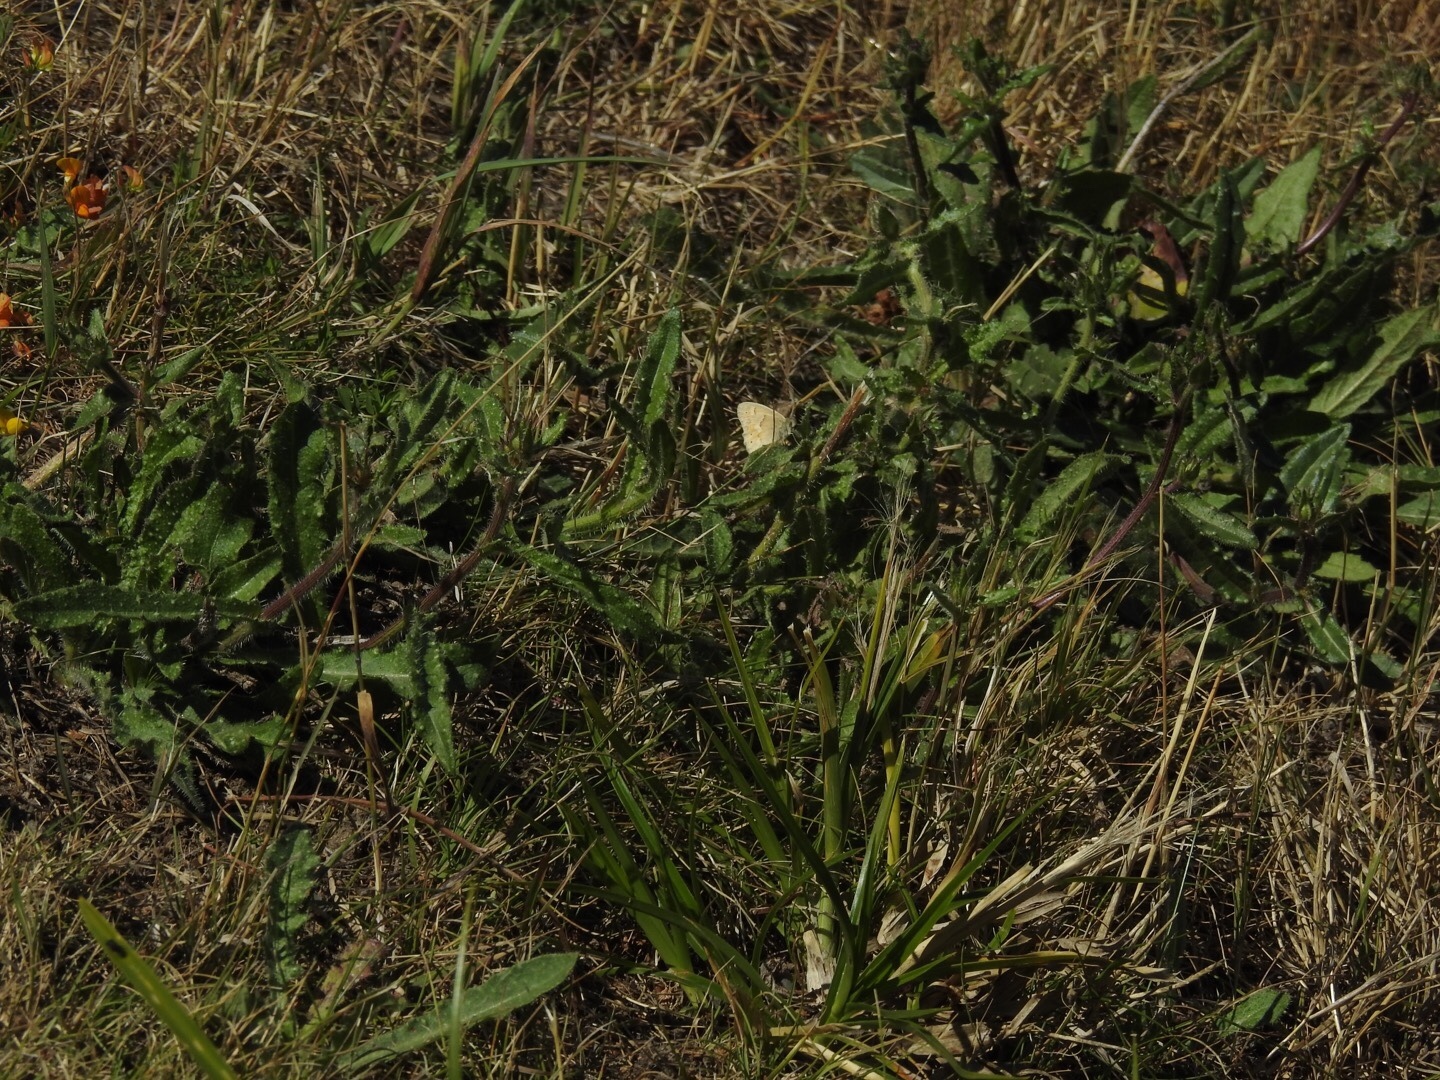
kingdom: Animalia
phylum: Arthropoda
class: Insecta
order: Lepidoptera
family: Nymphalidae
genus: Coenonympha
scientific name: Coenonympha california
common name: Common ringlet
